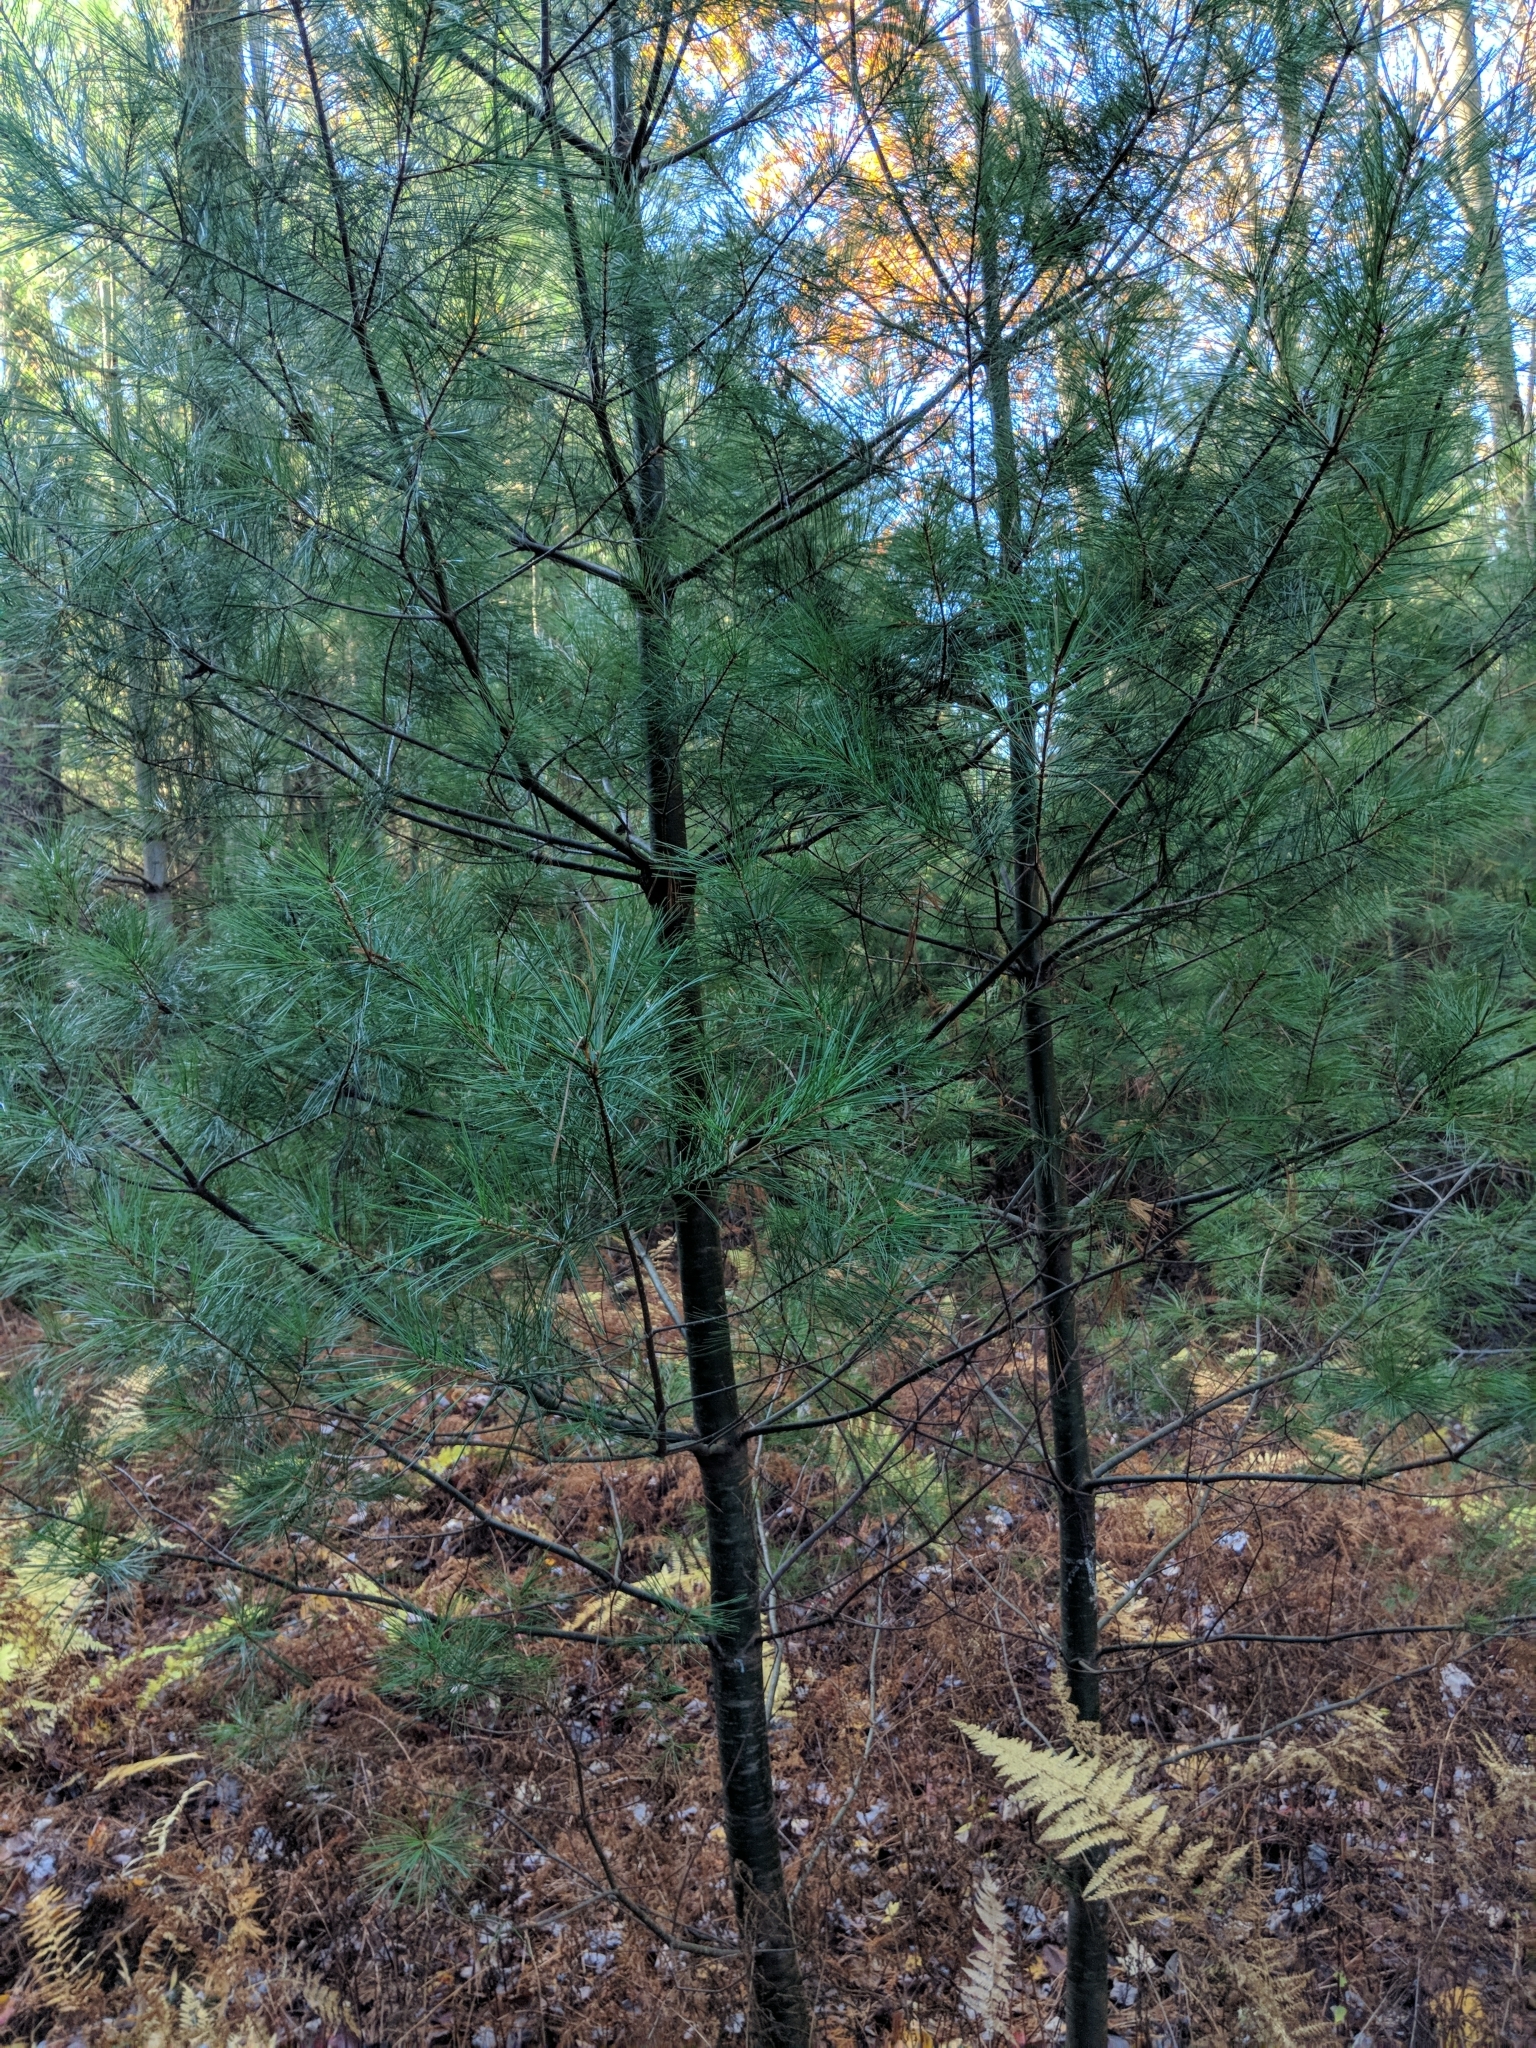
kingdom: Plantae
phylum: Tracheophyta
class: Pinopsida
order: Pinales
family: Pinaceae
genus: Pinus
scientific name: Pinus strobus
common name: Weymouth pine
